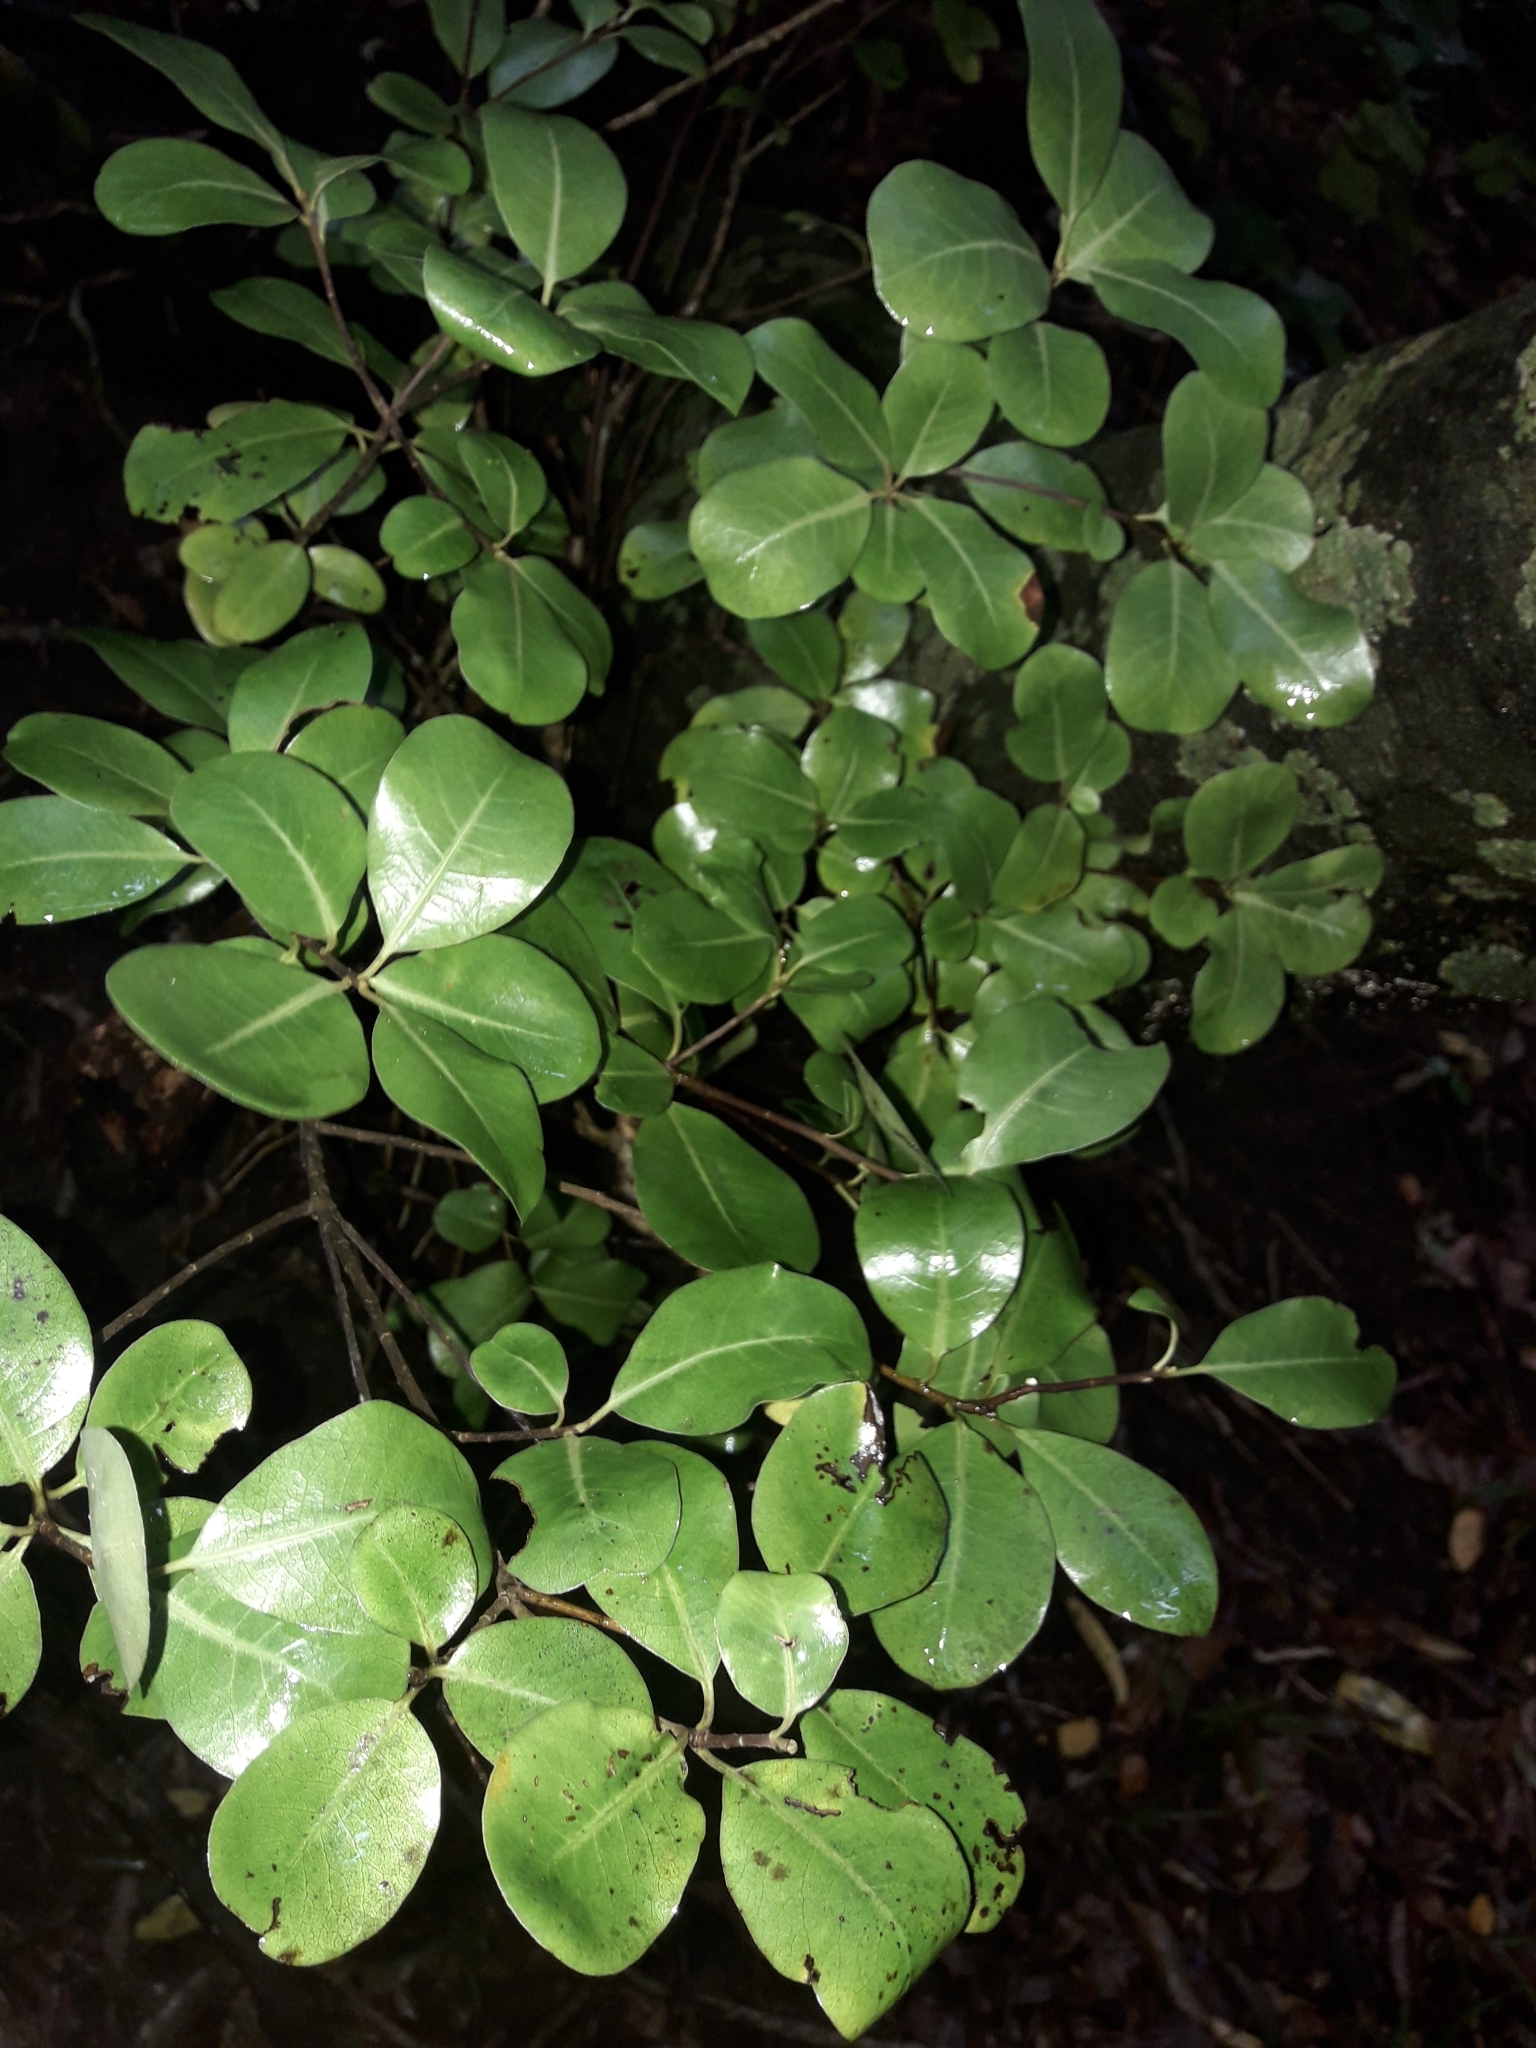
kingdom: Plantae
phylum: Tracheophyta
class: Magnoliopsida
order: Apiales
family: Pittosporaceae
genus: Pittosporum
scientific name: Pittosporum tenuifolium
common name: Kohuhu
